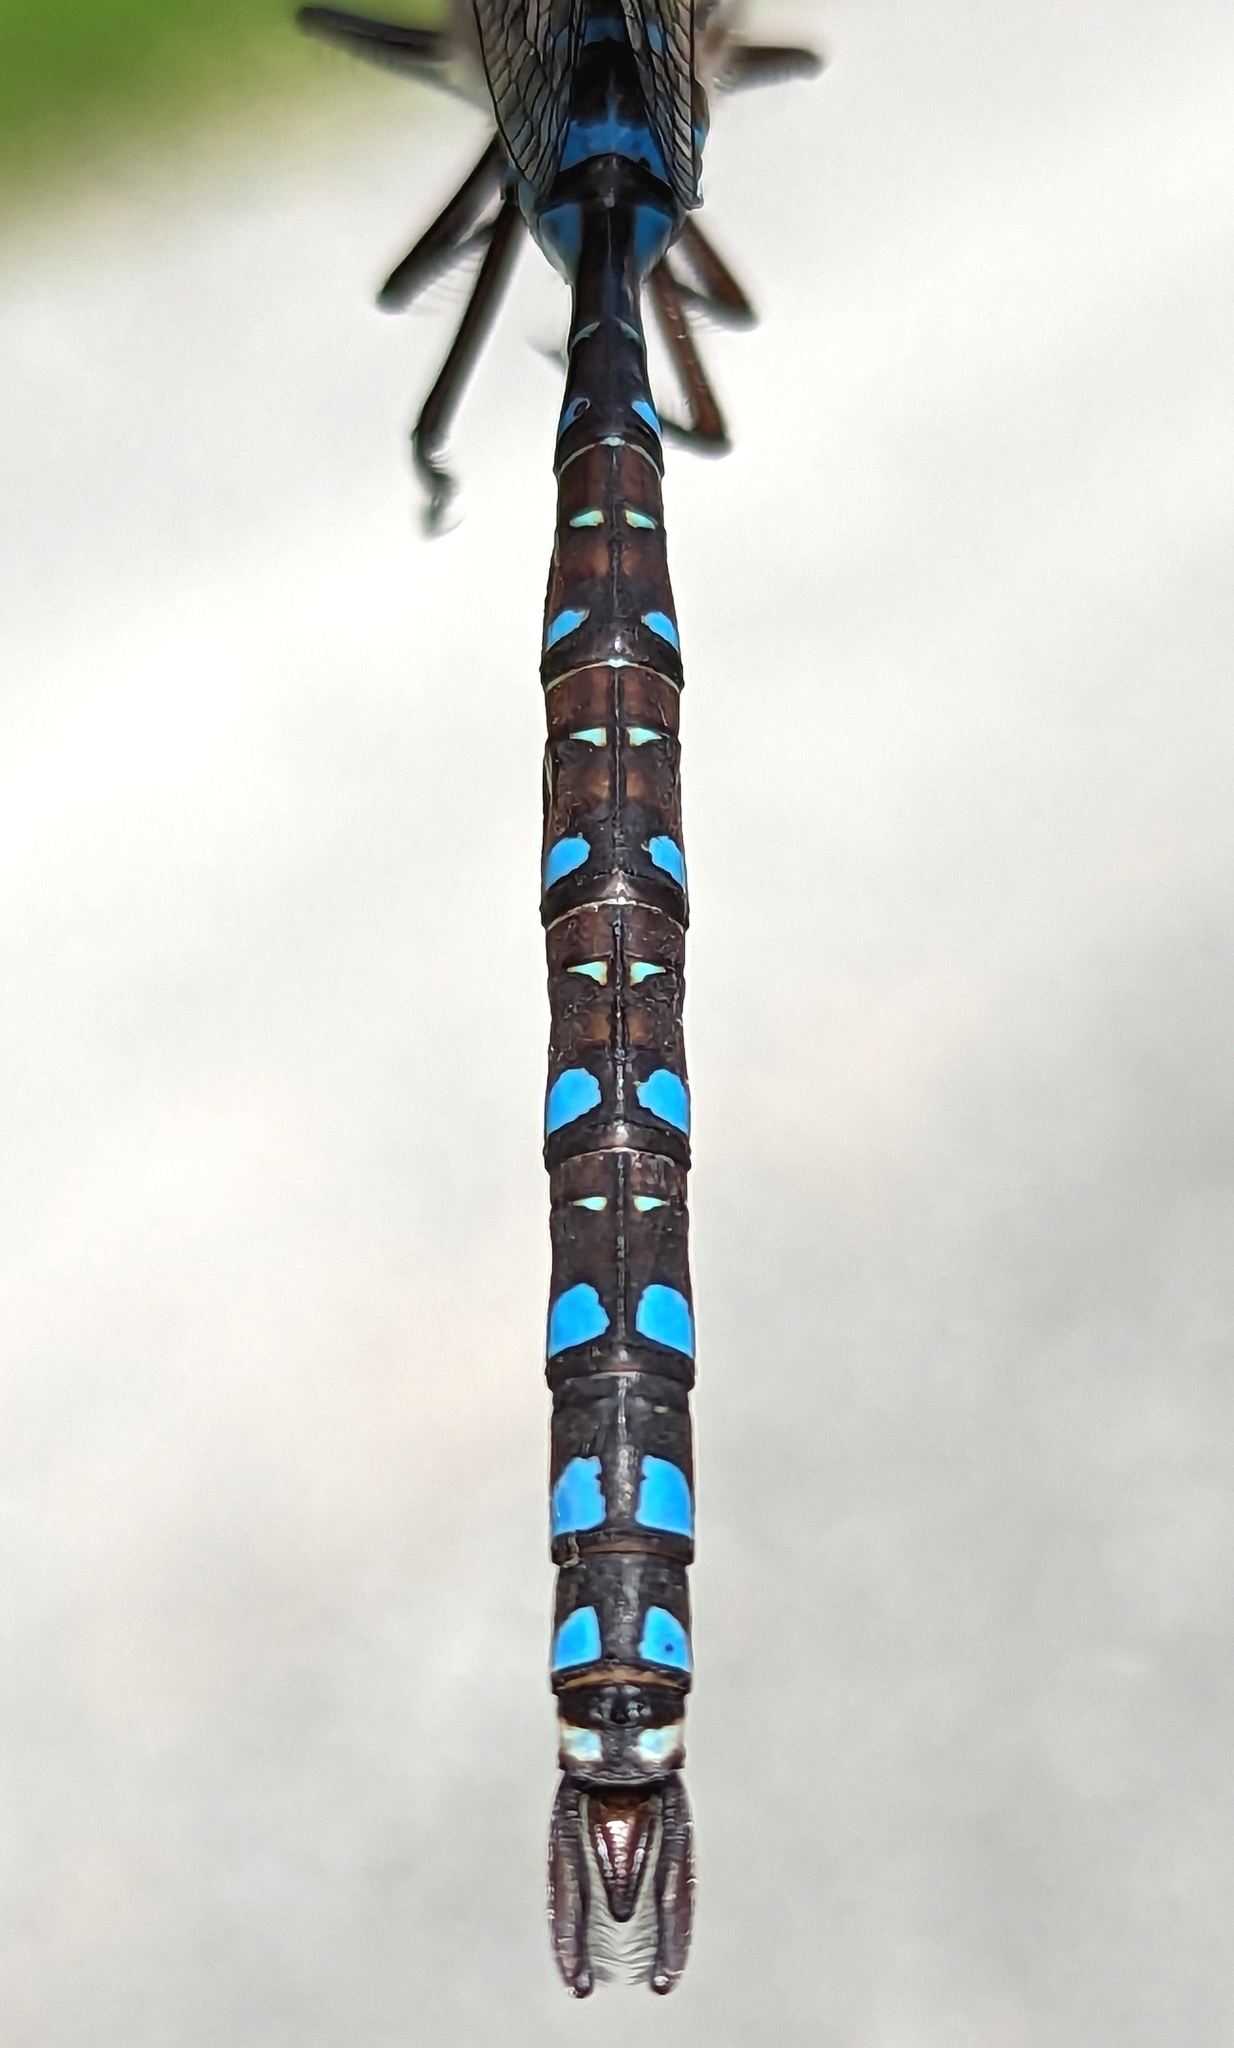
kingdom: Animalia
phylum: Arthropoda
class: Insecta
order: Odonata
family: Aeshnidae
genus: Aeshna
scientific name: Aeshna interrupta
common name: Variable darner
